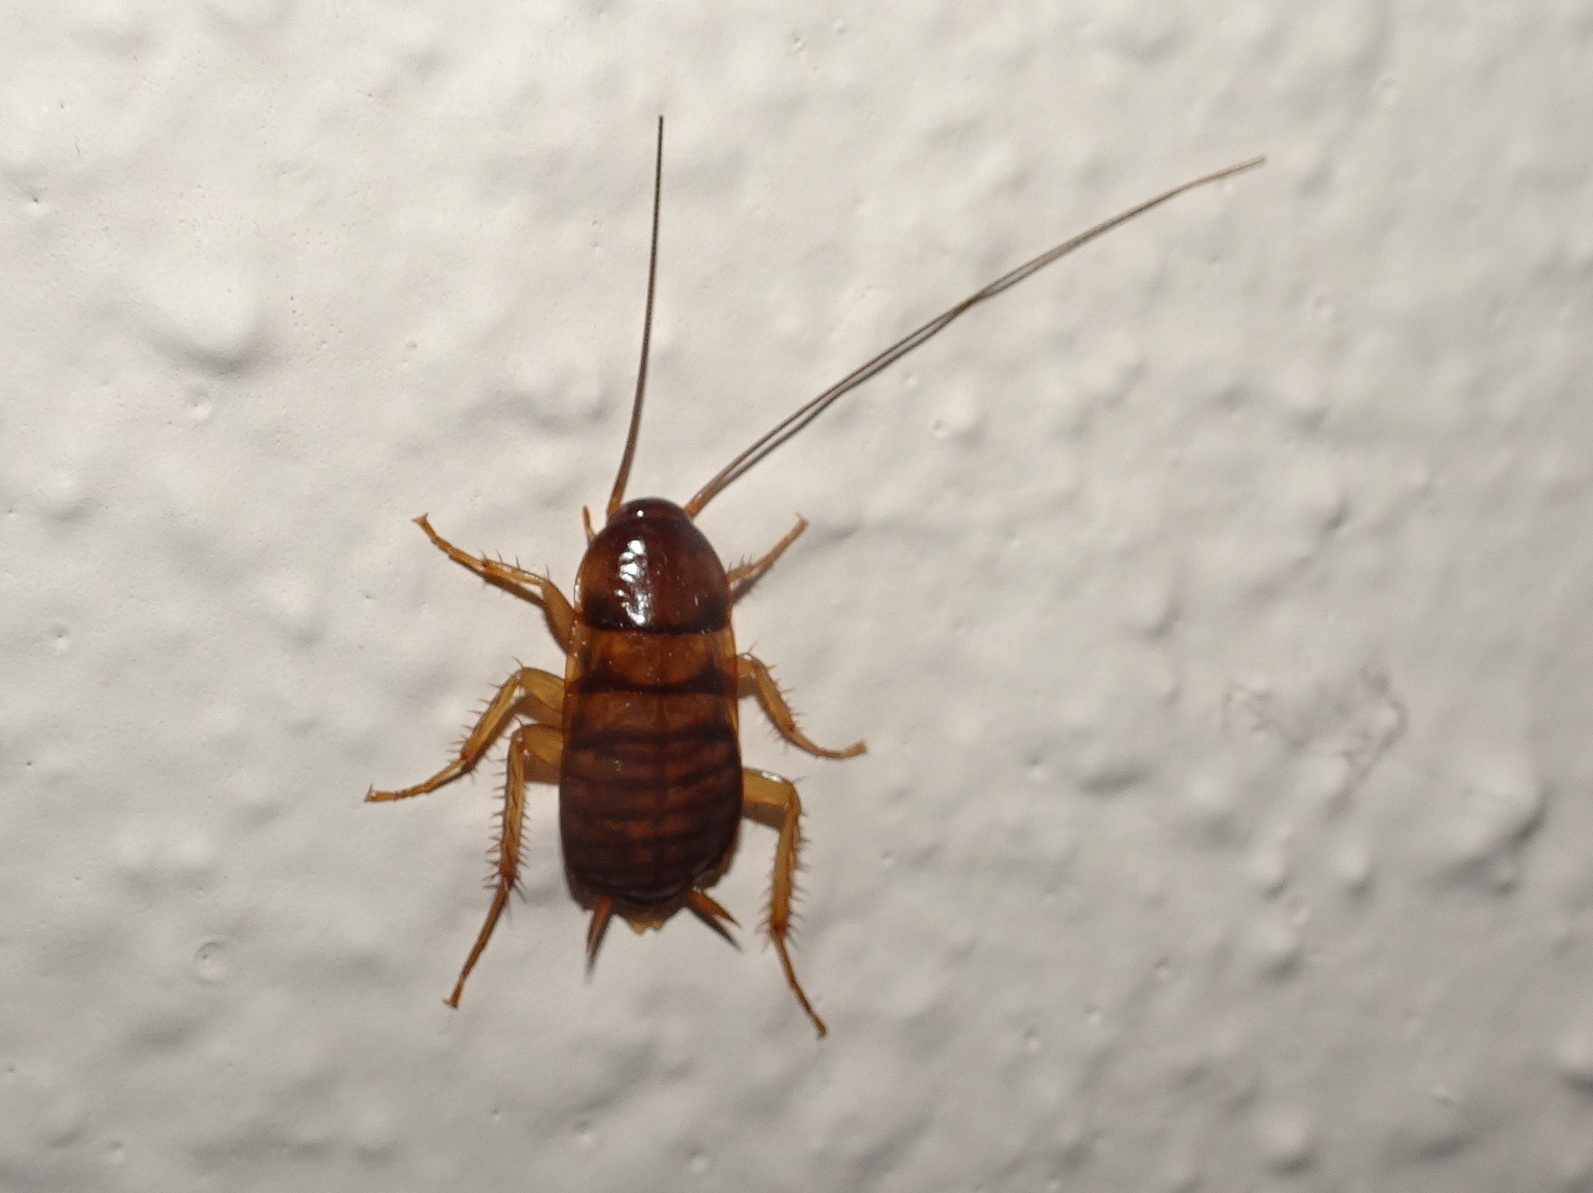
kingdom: Animalia
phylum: Arthropoda
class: Insecta
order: Blattodea
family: Blattidae
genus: Periplaneta
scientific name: Periplaneta americana
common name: American cockroach
